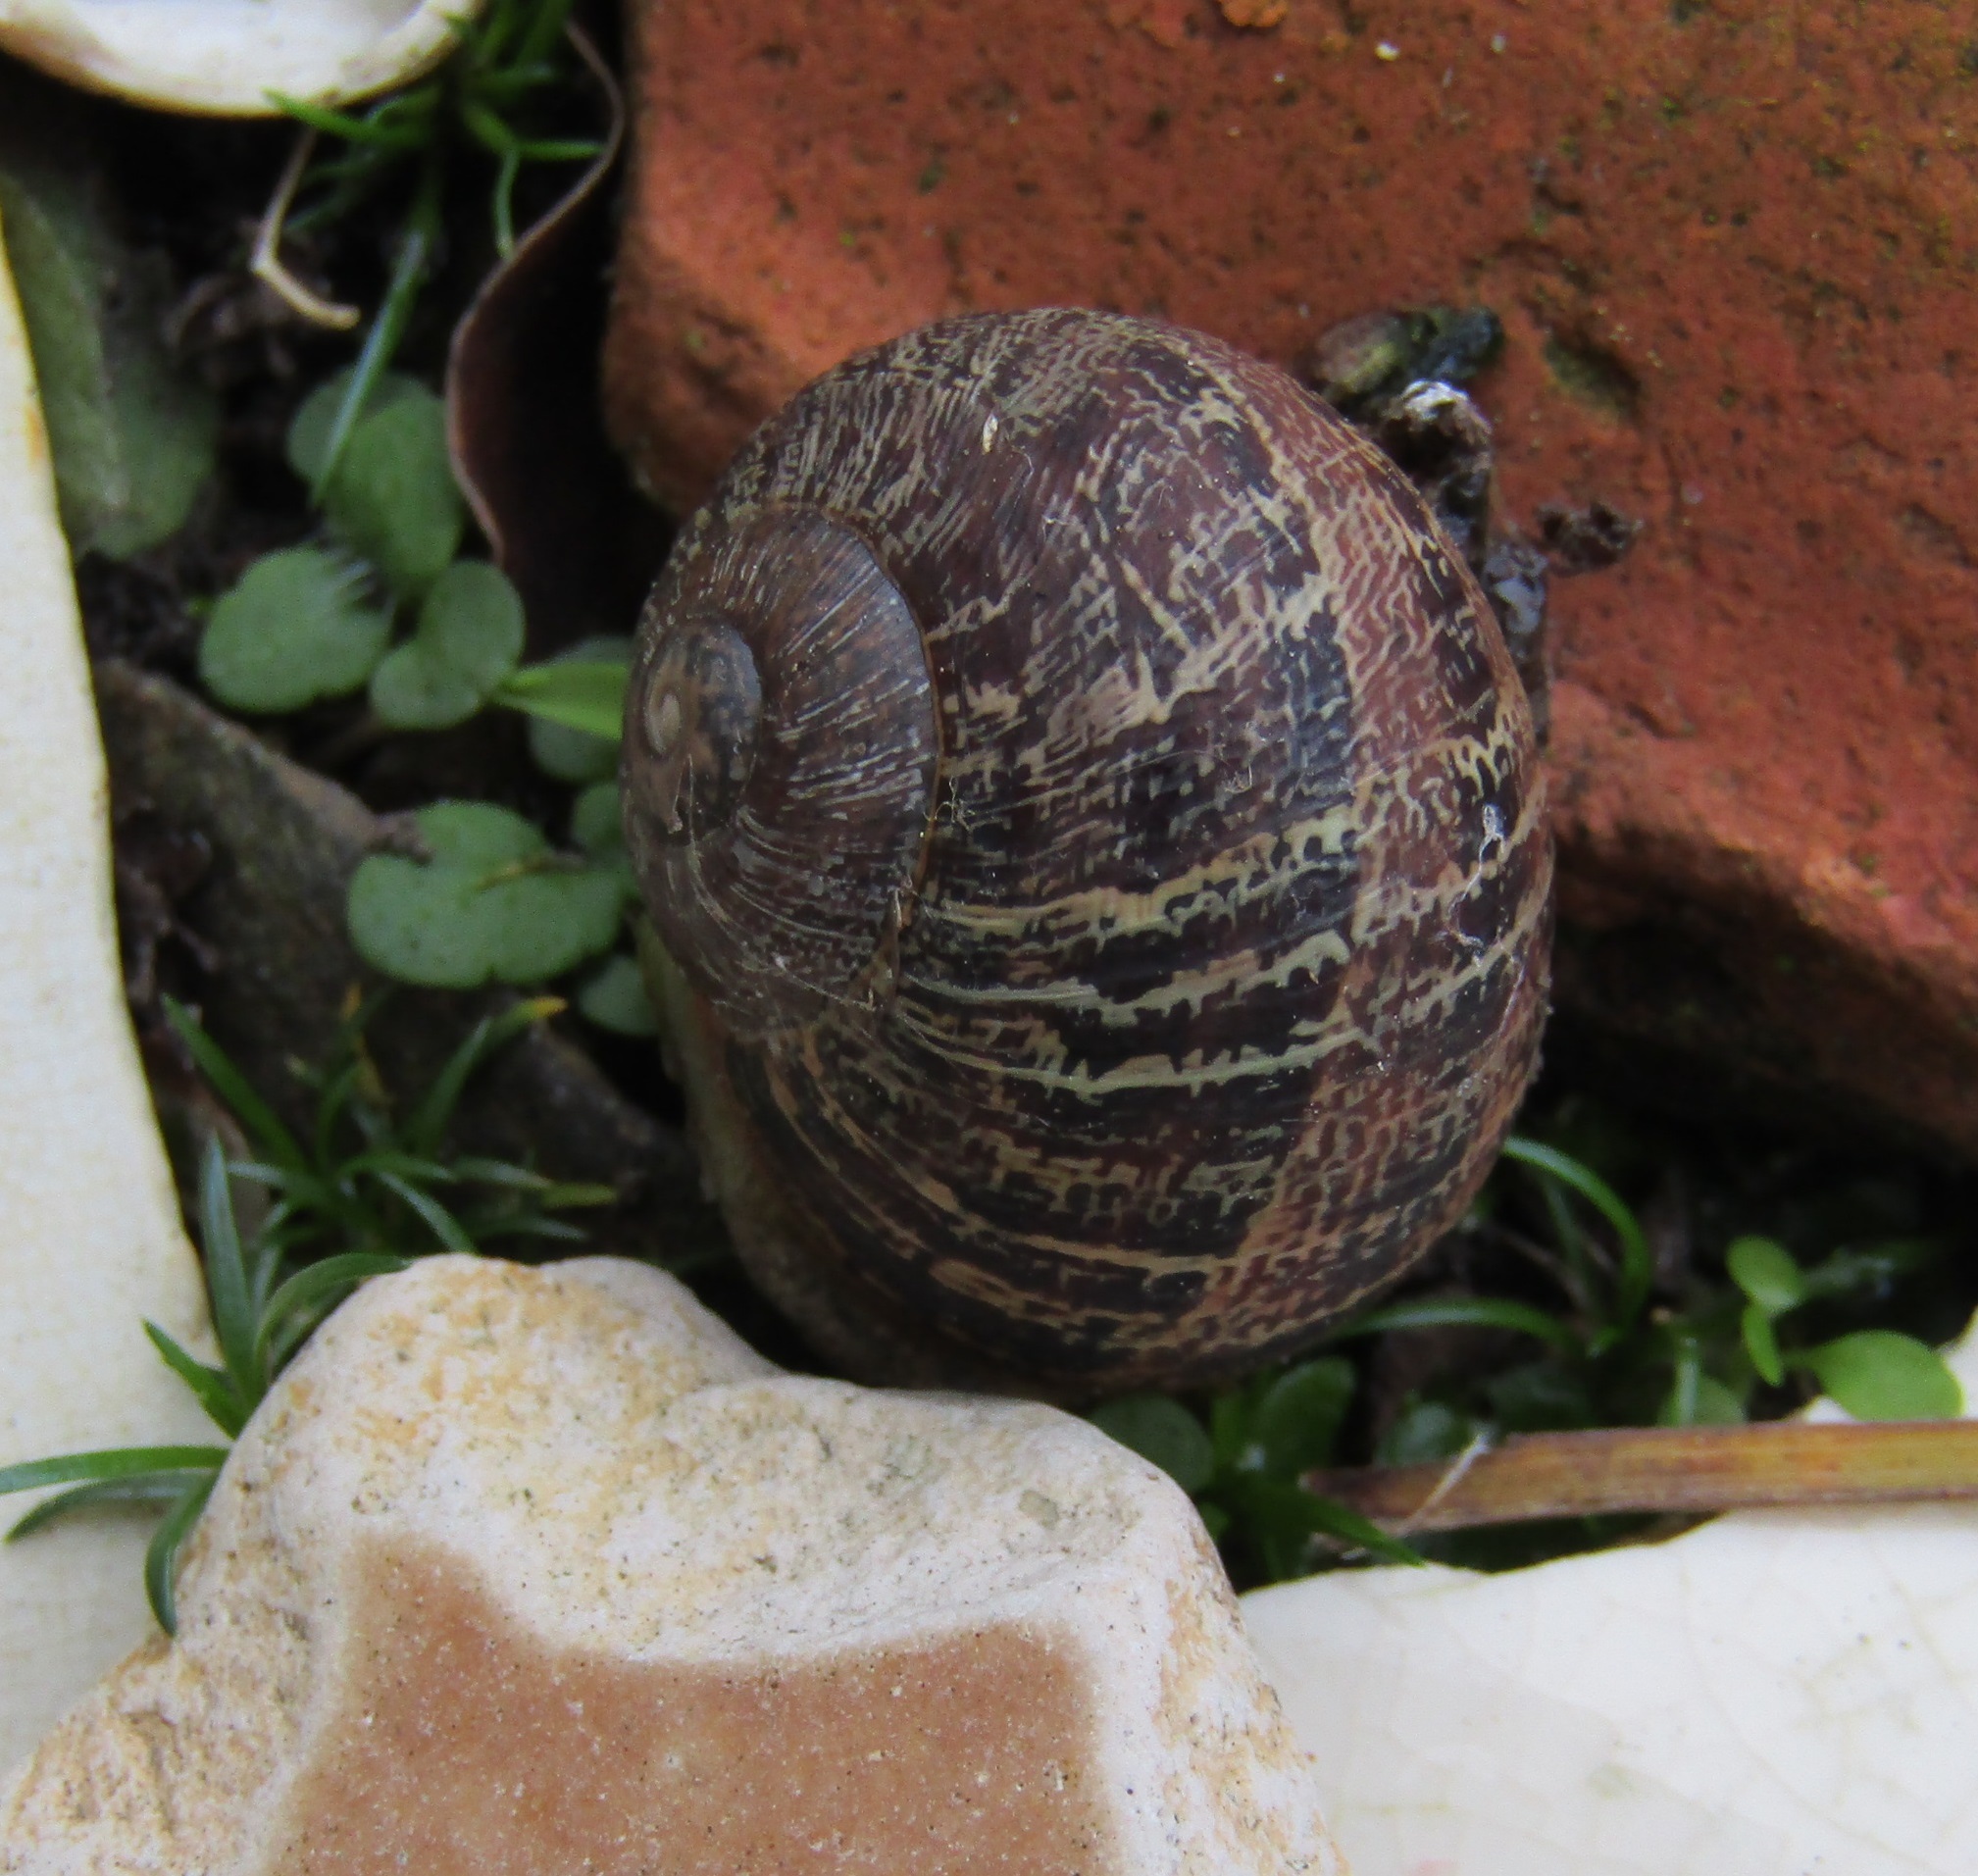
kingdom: Animalia
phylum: Mollusca
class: Gastropoda
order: Stylommatophora
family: Helicidae
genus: Cornu
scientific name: Cornu aspersum
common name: Brown garden snail
